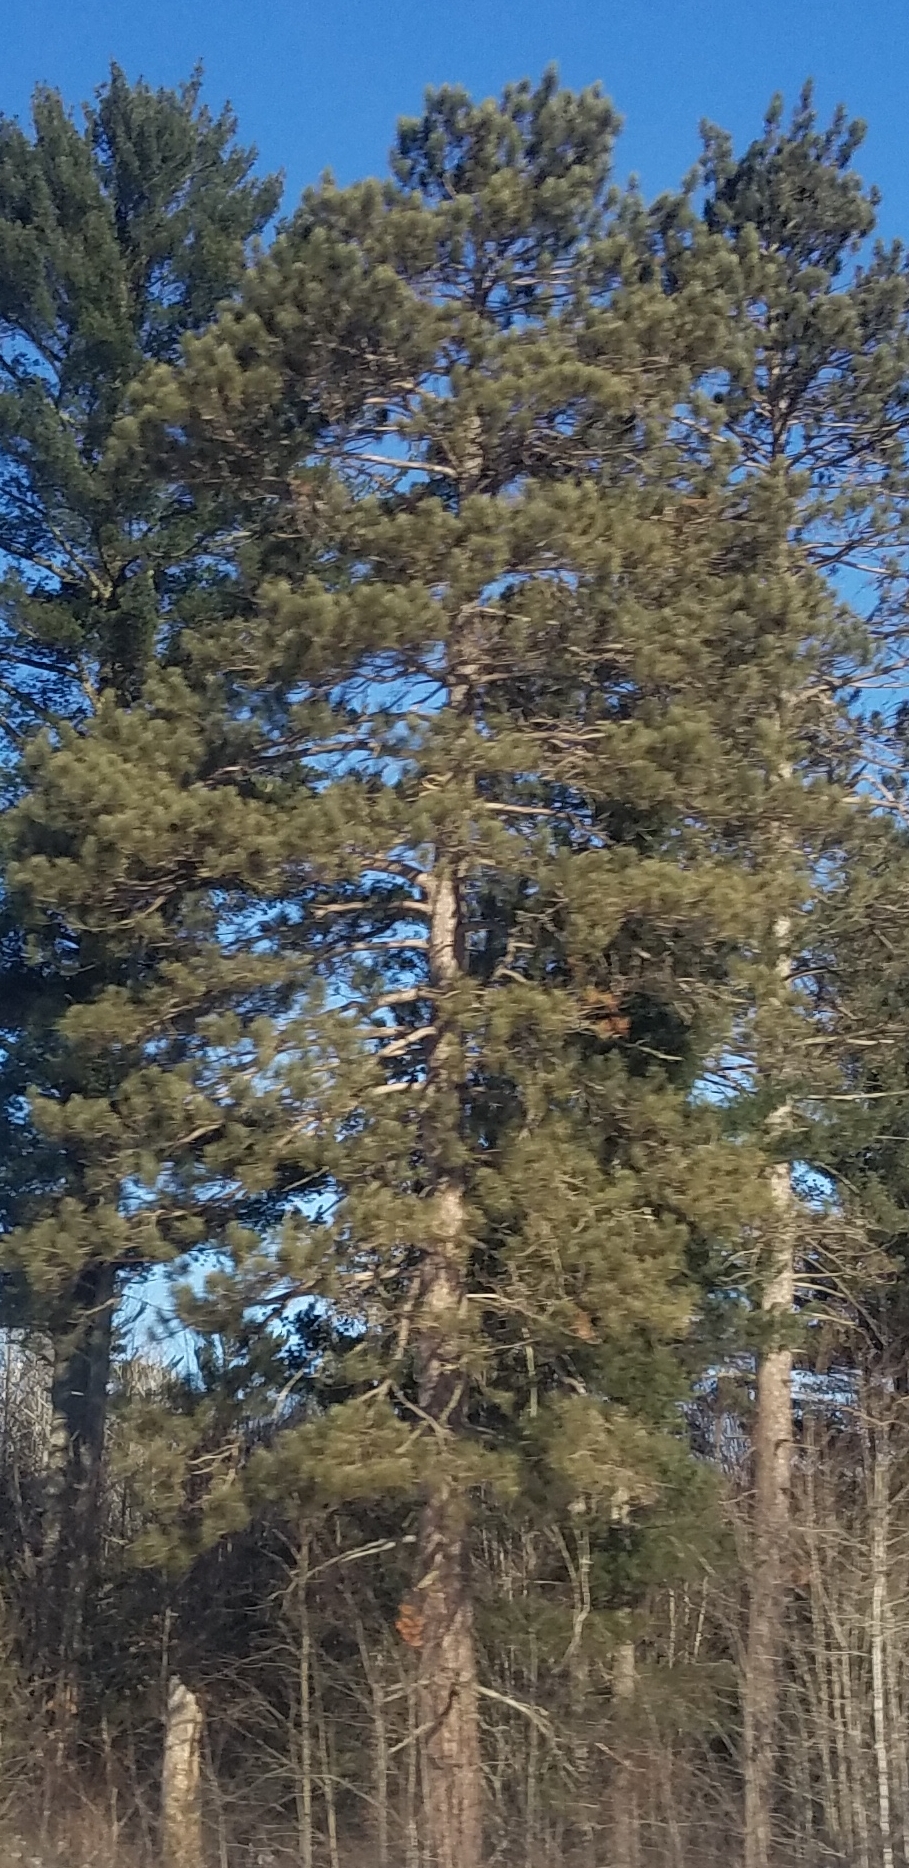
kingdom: Plantae
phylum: Tracheophyta
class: Pinopsida
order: Pinales
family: Pinaceae
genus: Pinus
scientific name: Pinus resinosa
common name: Norway pine
